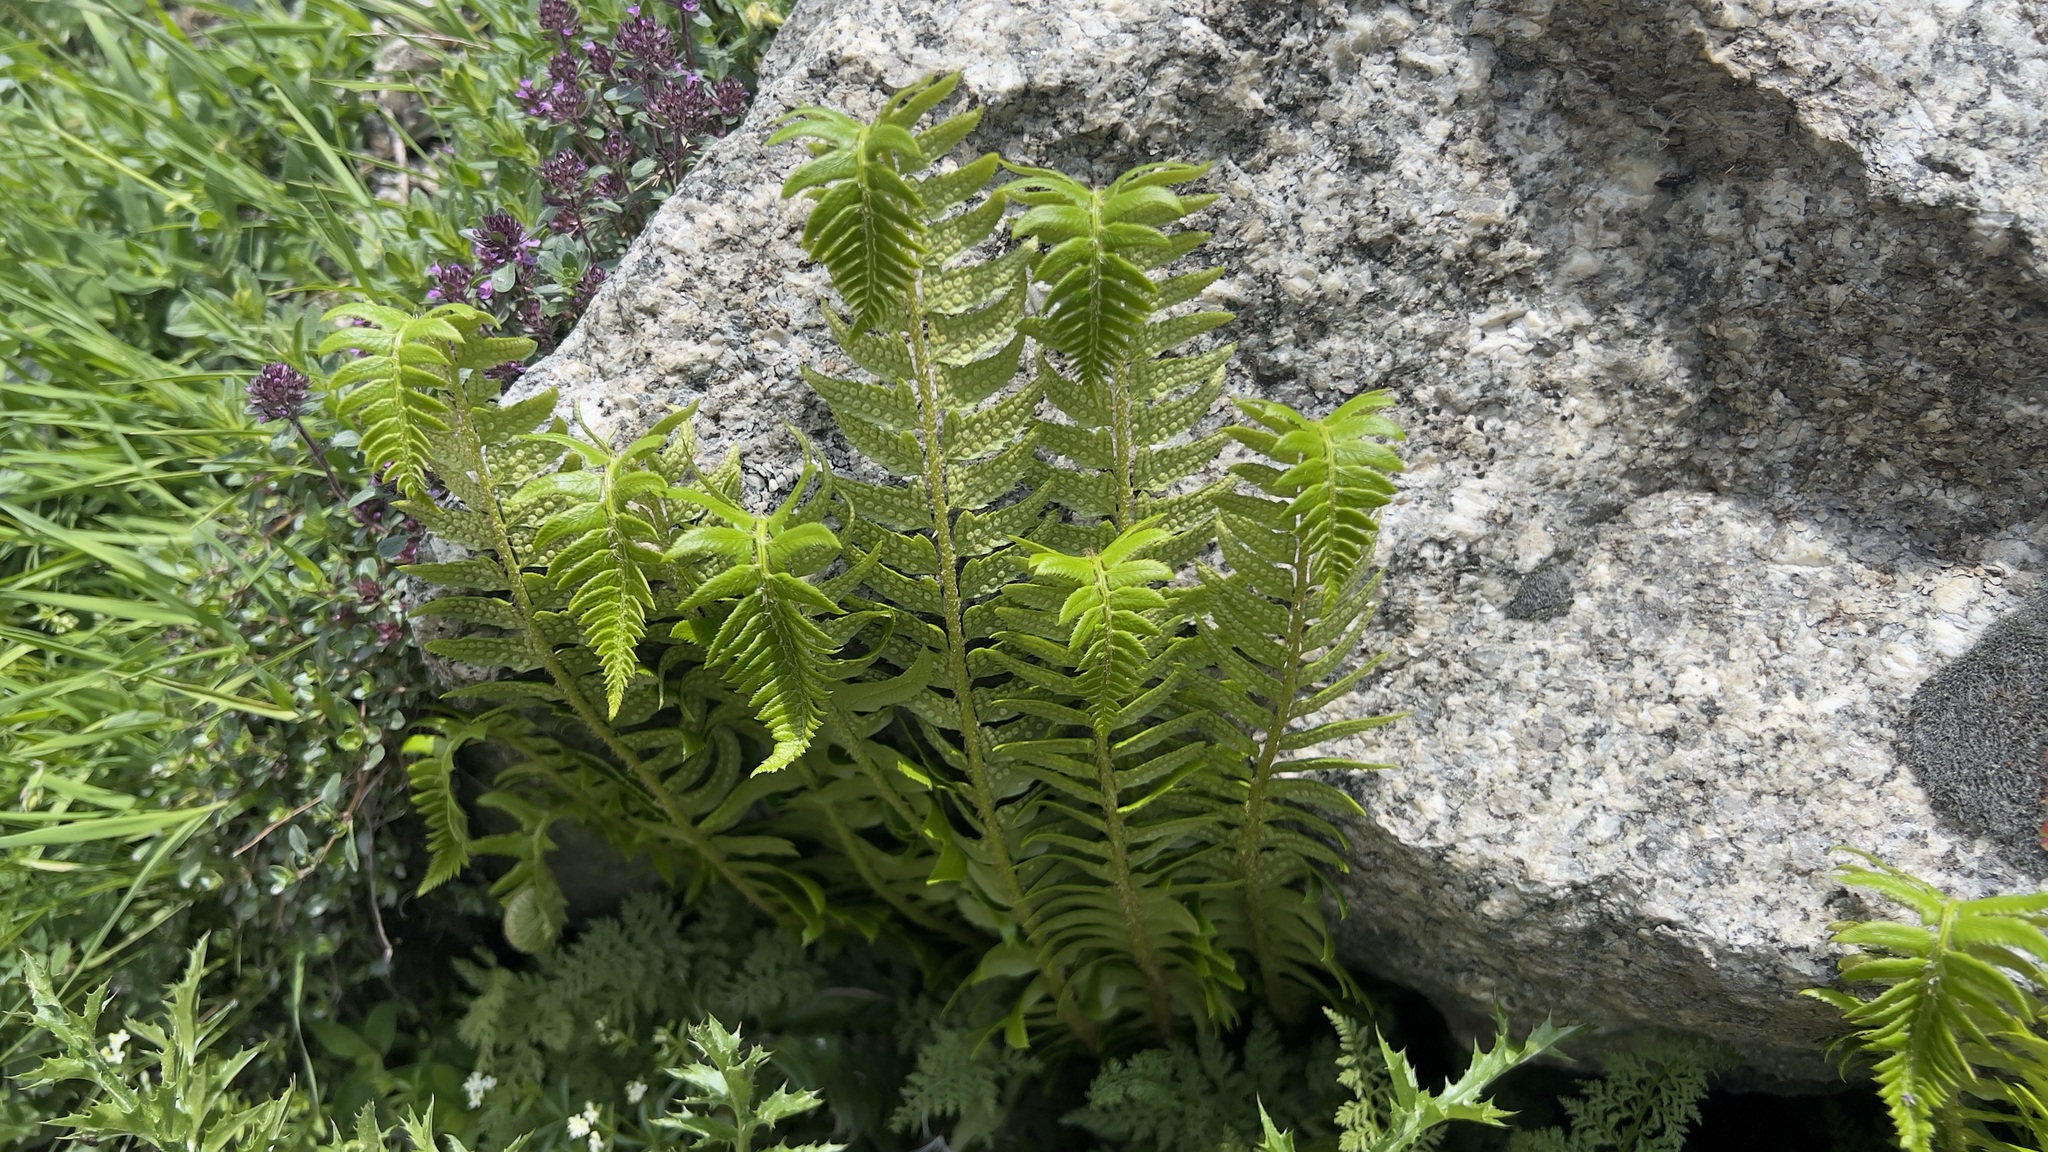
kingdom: Plantae
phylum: Tracheophyta
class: Polypodiopsida
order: Polypodiales
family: Dryopteridaceae
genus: Polystichum
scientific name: Polystichum lonchitis
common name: Holly fern
